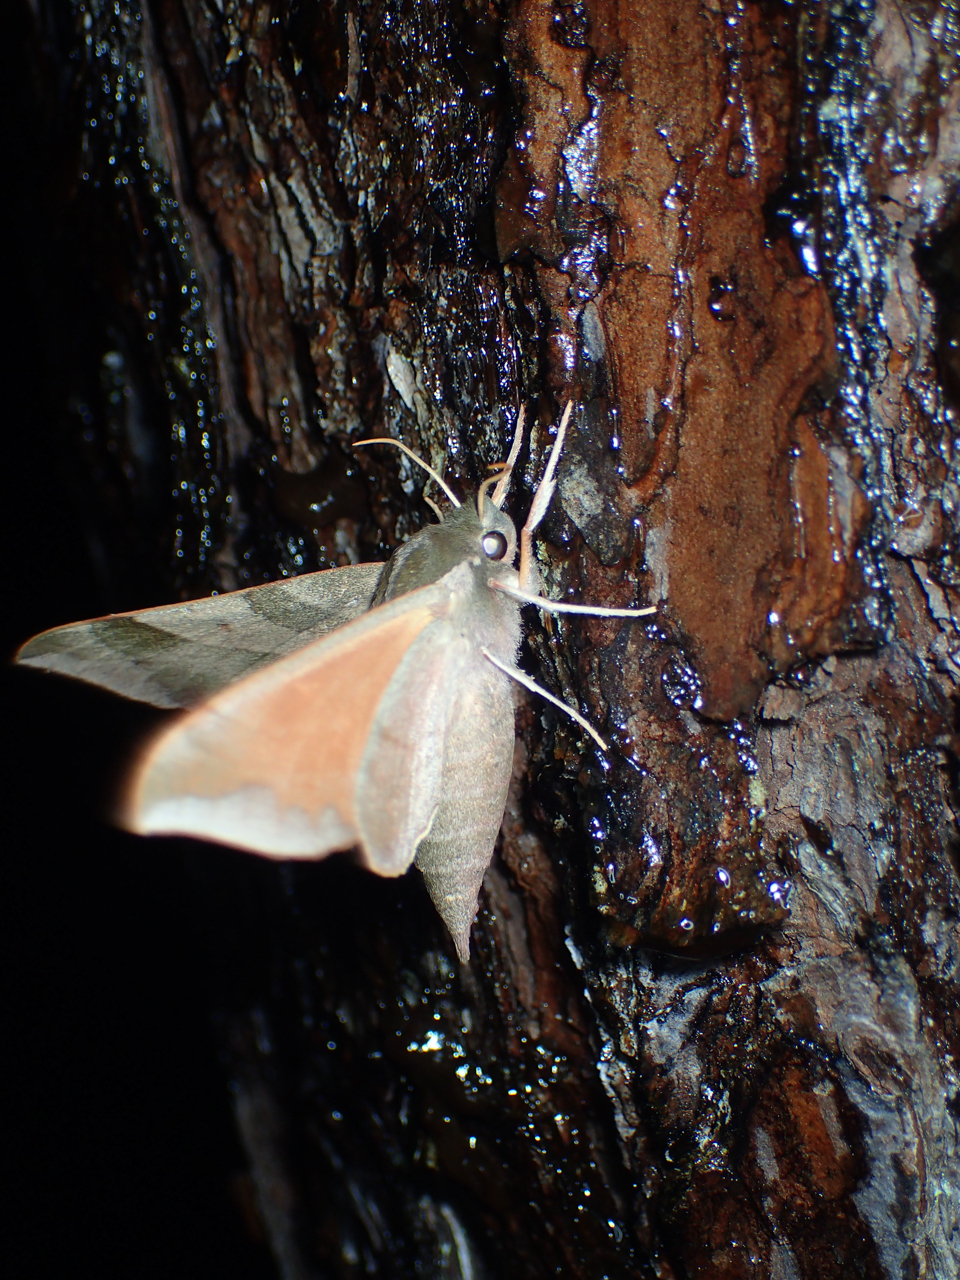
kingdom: Animalia
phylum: Arthropoda
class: Insecta
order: Lepidoptera
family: Sphingidae
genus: Darapsa
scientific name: Darapsa myron
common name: Hog sphinx
